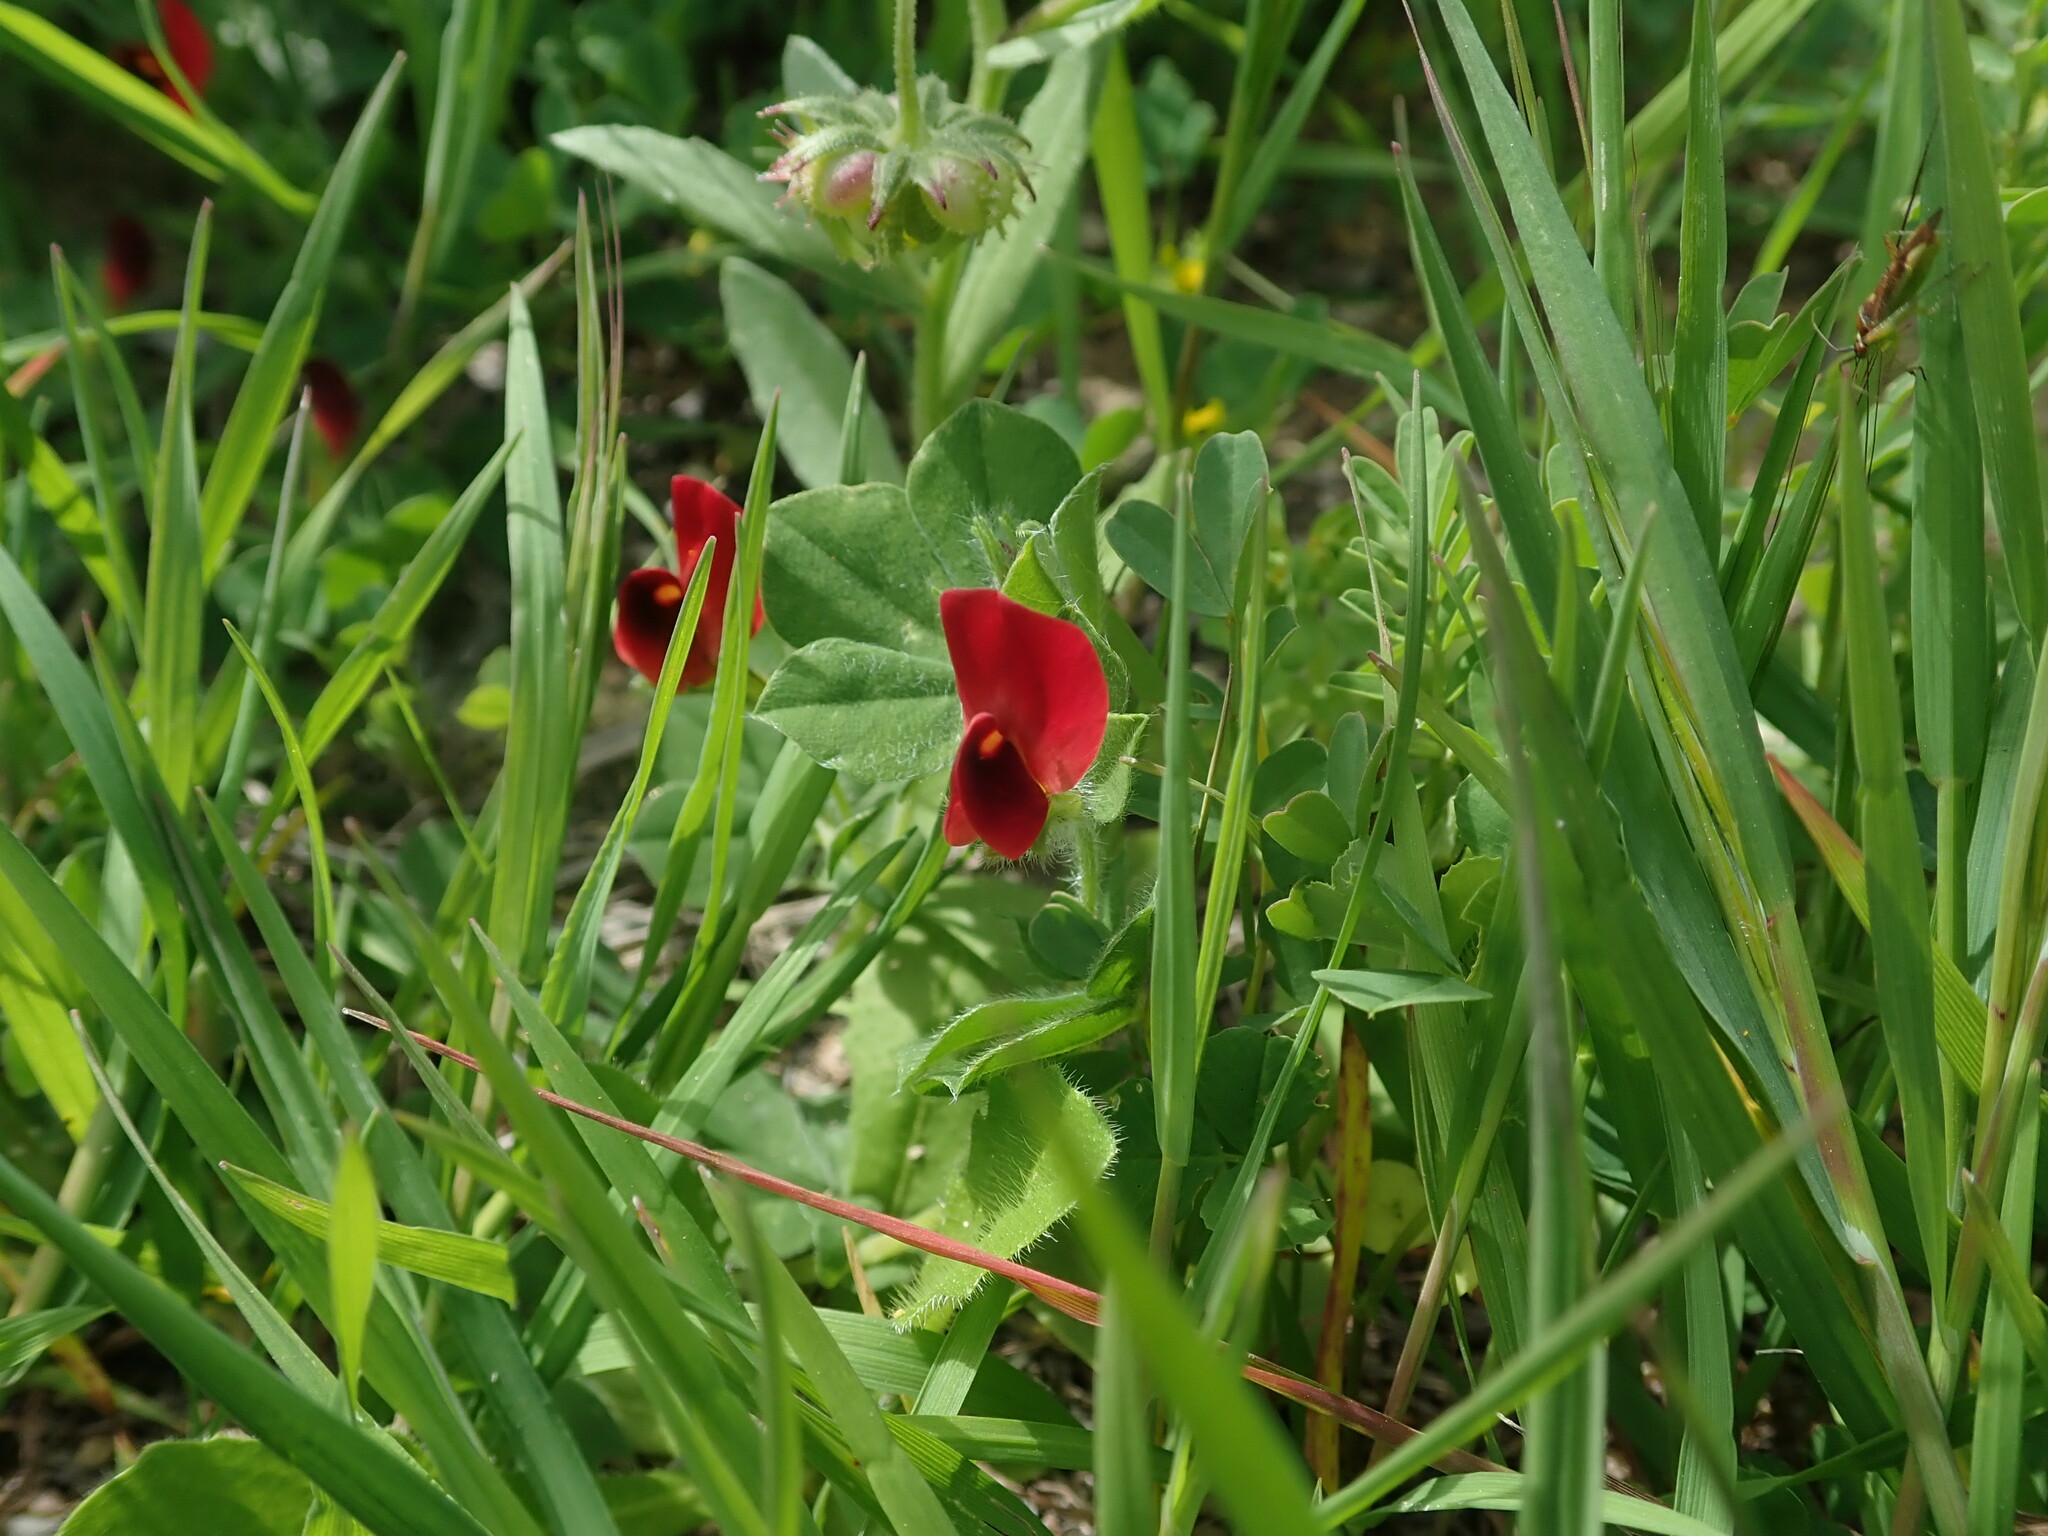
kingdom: Plantae
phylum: Tracheophyta
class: Magnoliopsida
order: Fabales
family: Fabaceae
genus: Lotus
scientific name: Lotus tetragonolobus
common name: Asparagus-pea
